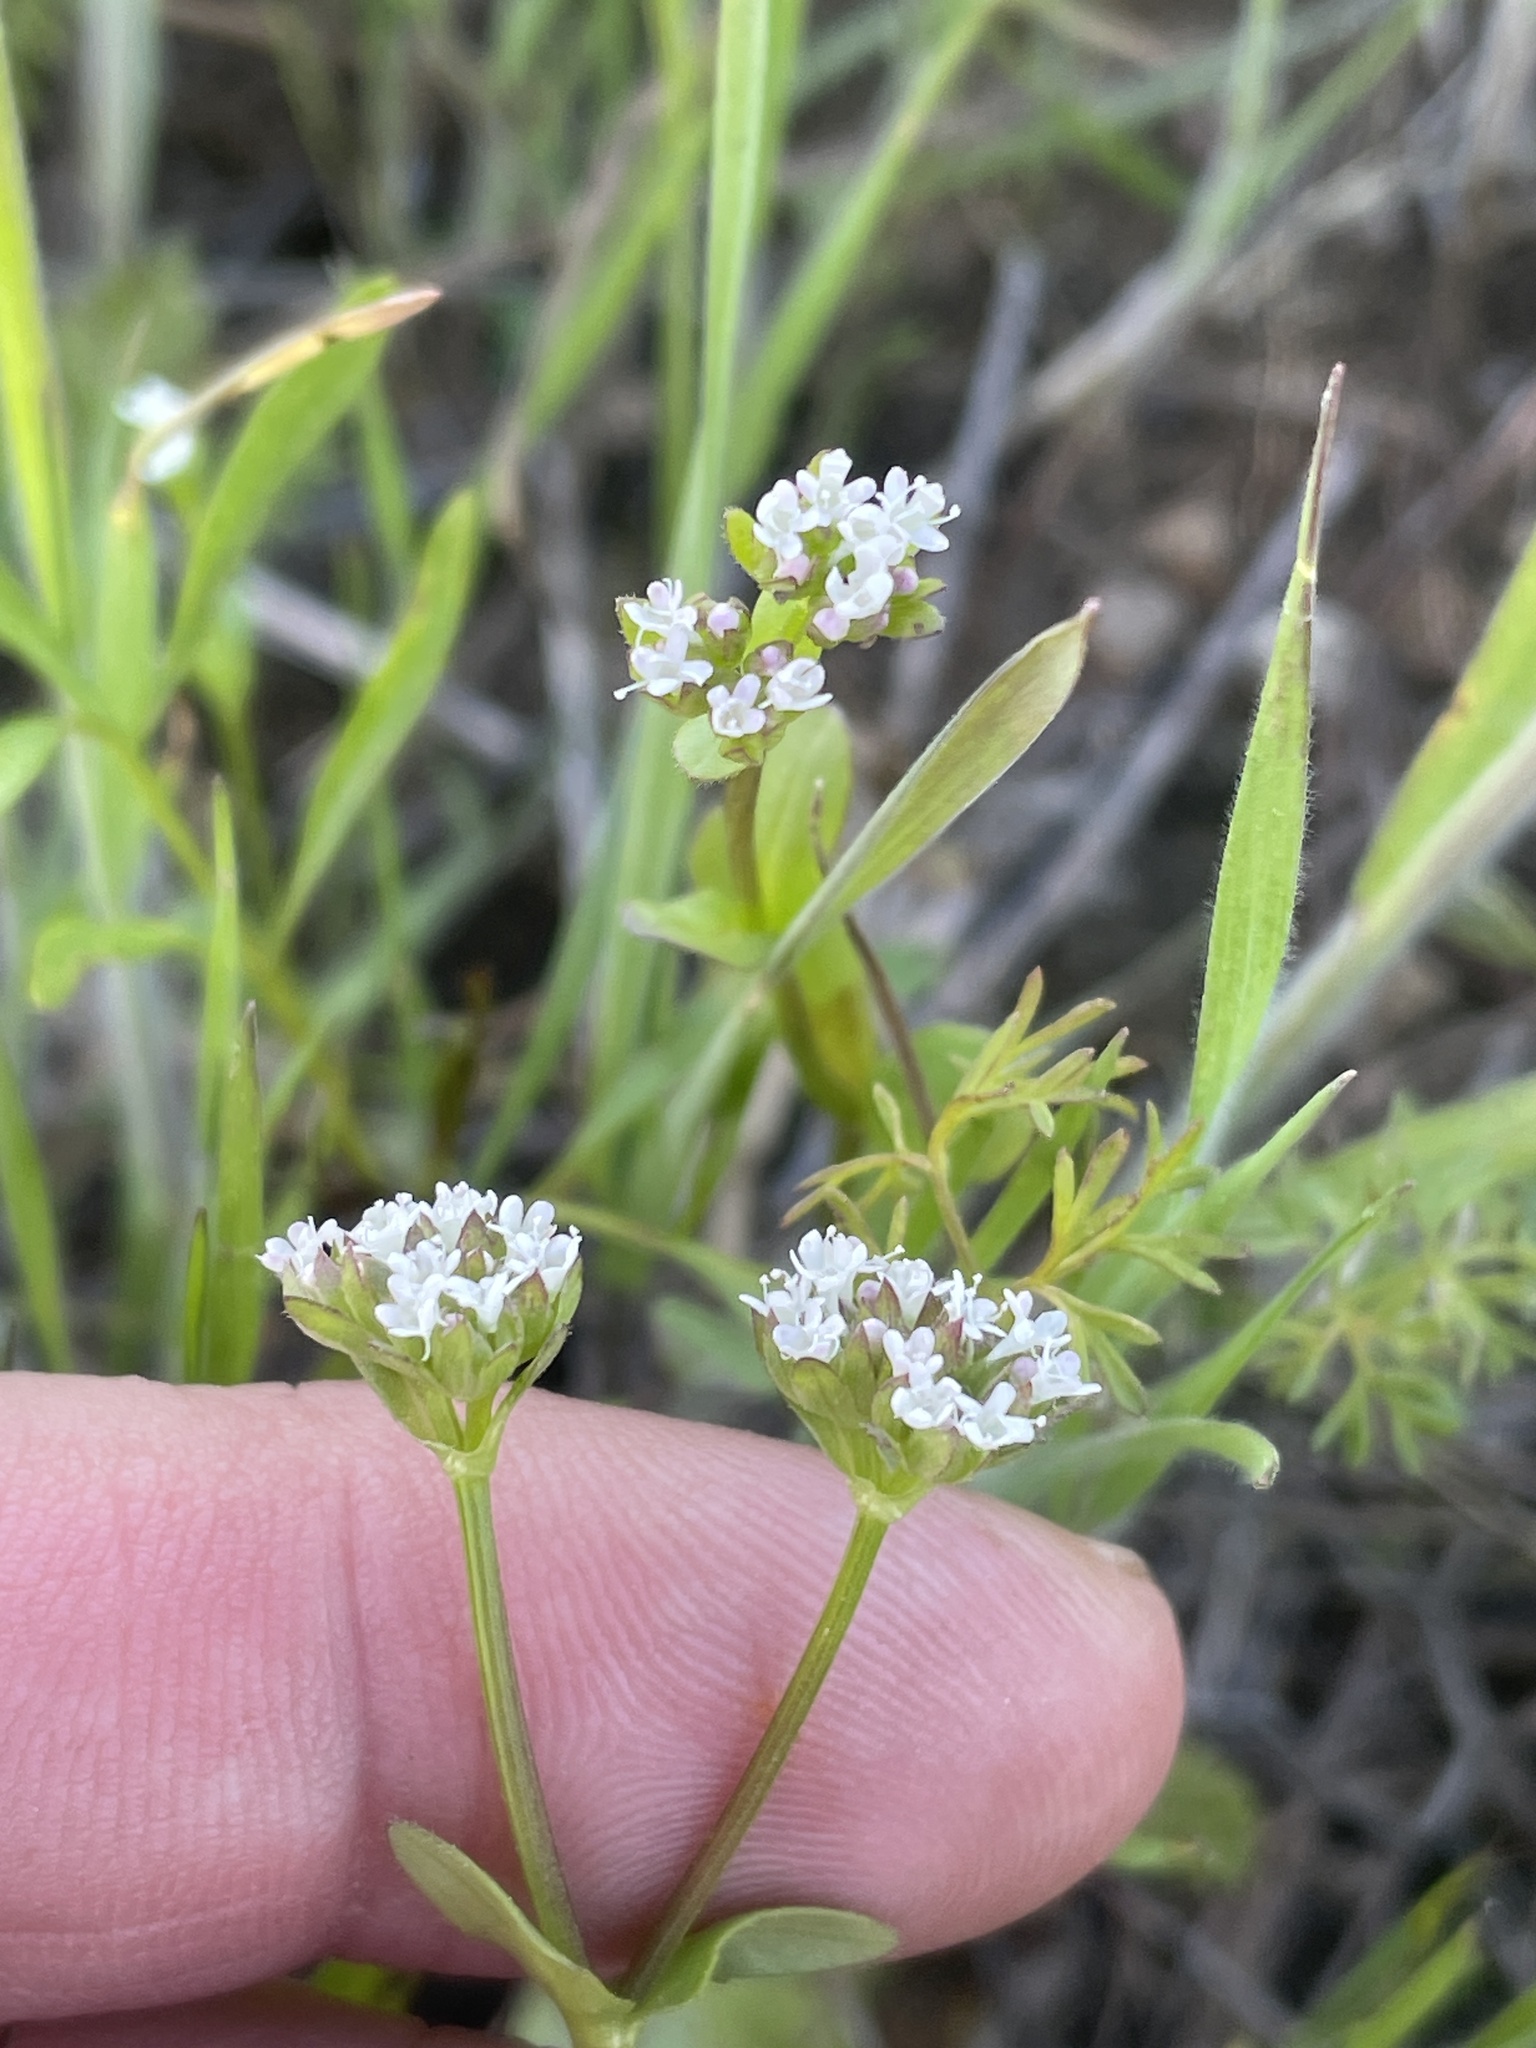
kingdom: Plantae
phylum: Tracheophyta
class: Magnoliopsida
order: Dipsacales
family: Caprifoliaceae
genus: Valerianella
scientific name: Valerianella radiata
